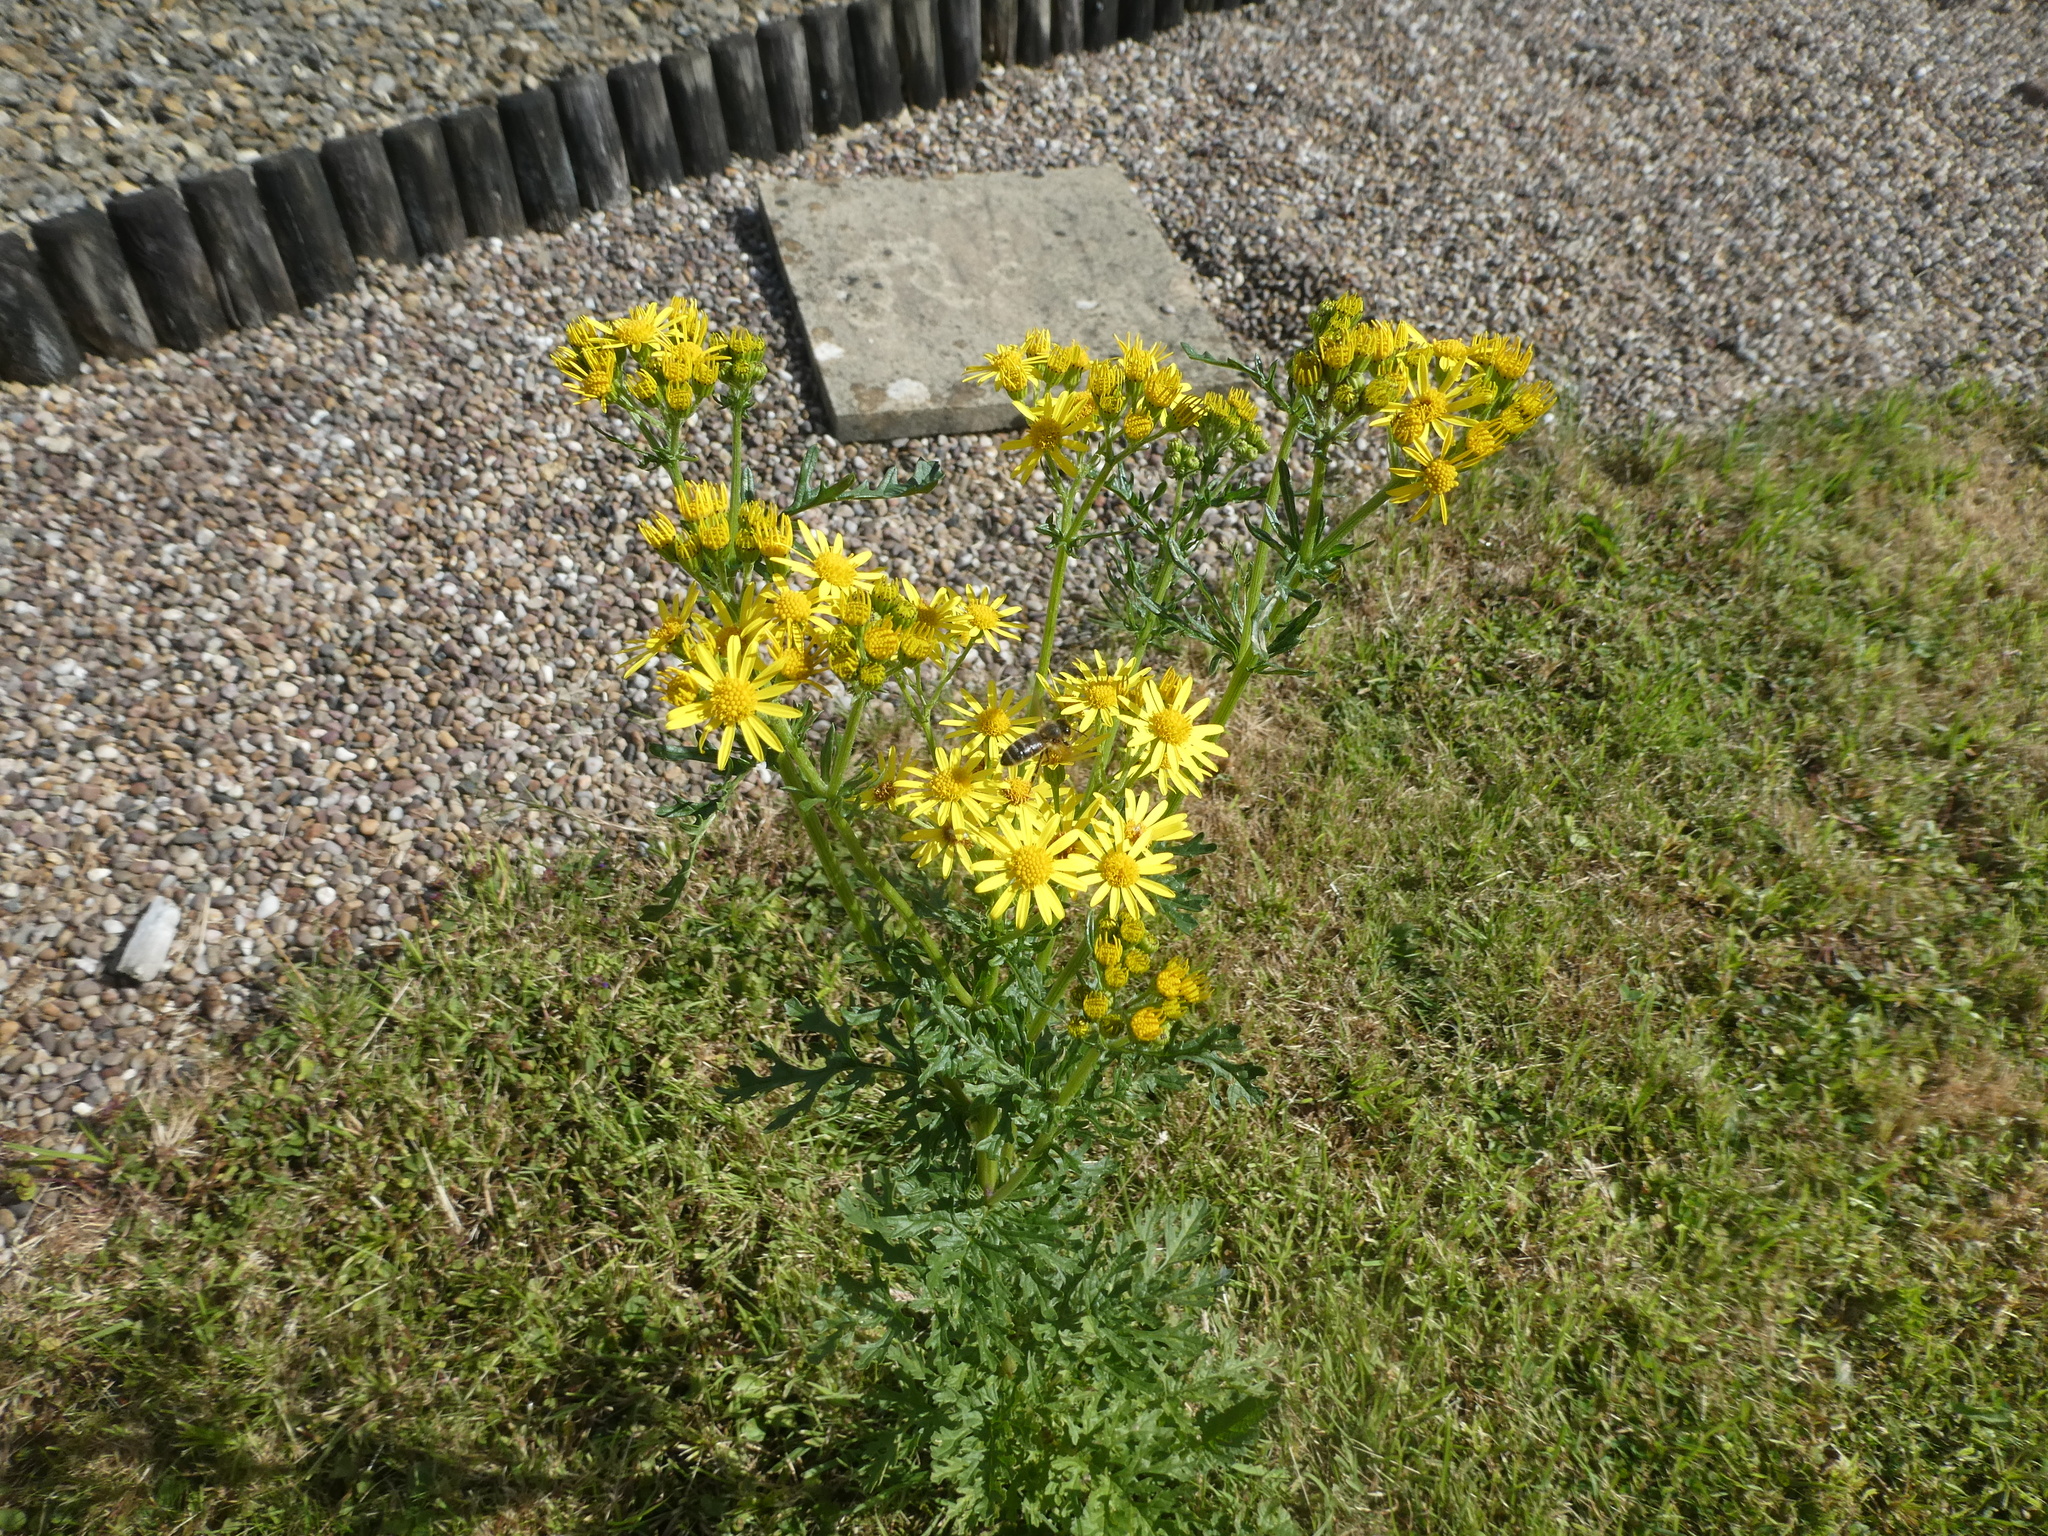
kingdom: Plantae
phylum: Tracheophyta
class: Magnoliopsida
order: Asterales
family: Asteraceae
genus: Jacobaea
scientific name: Jacobaea vulgaris
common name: Stinking willie
